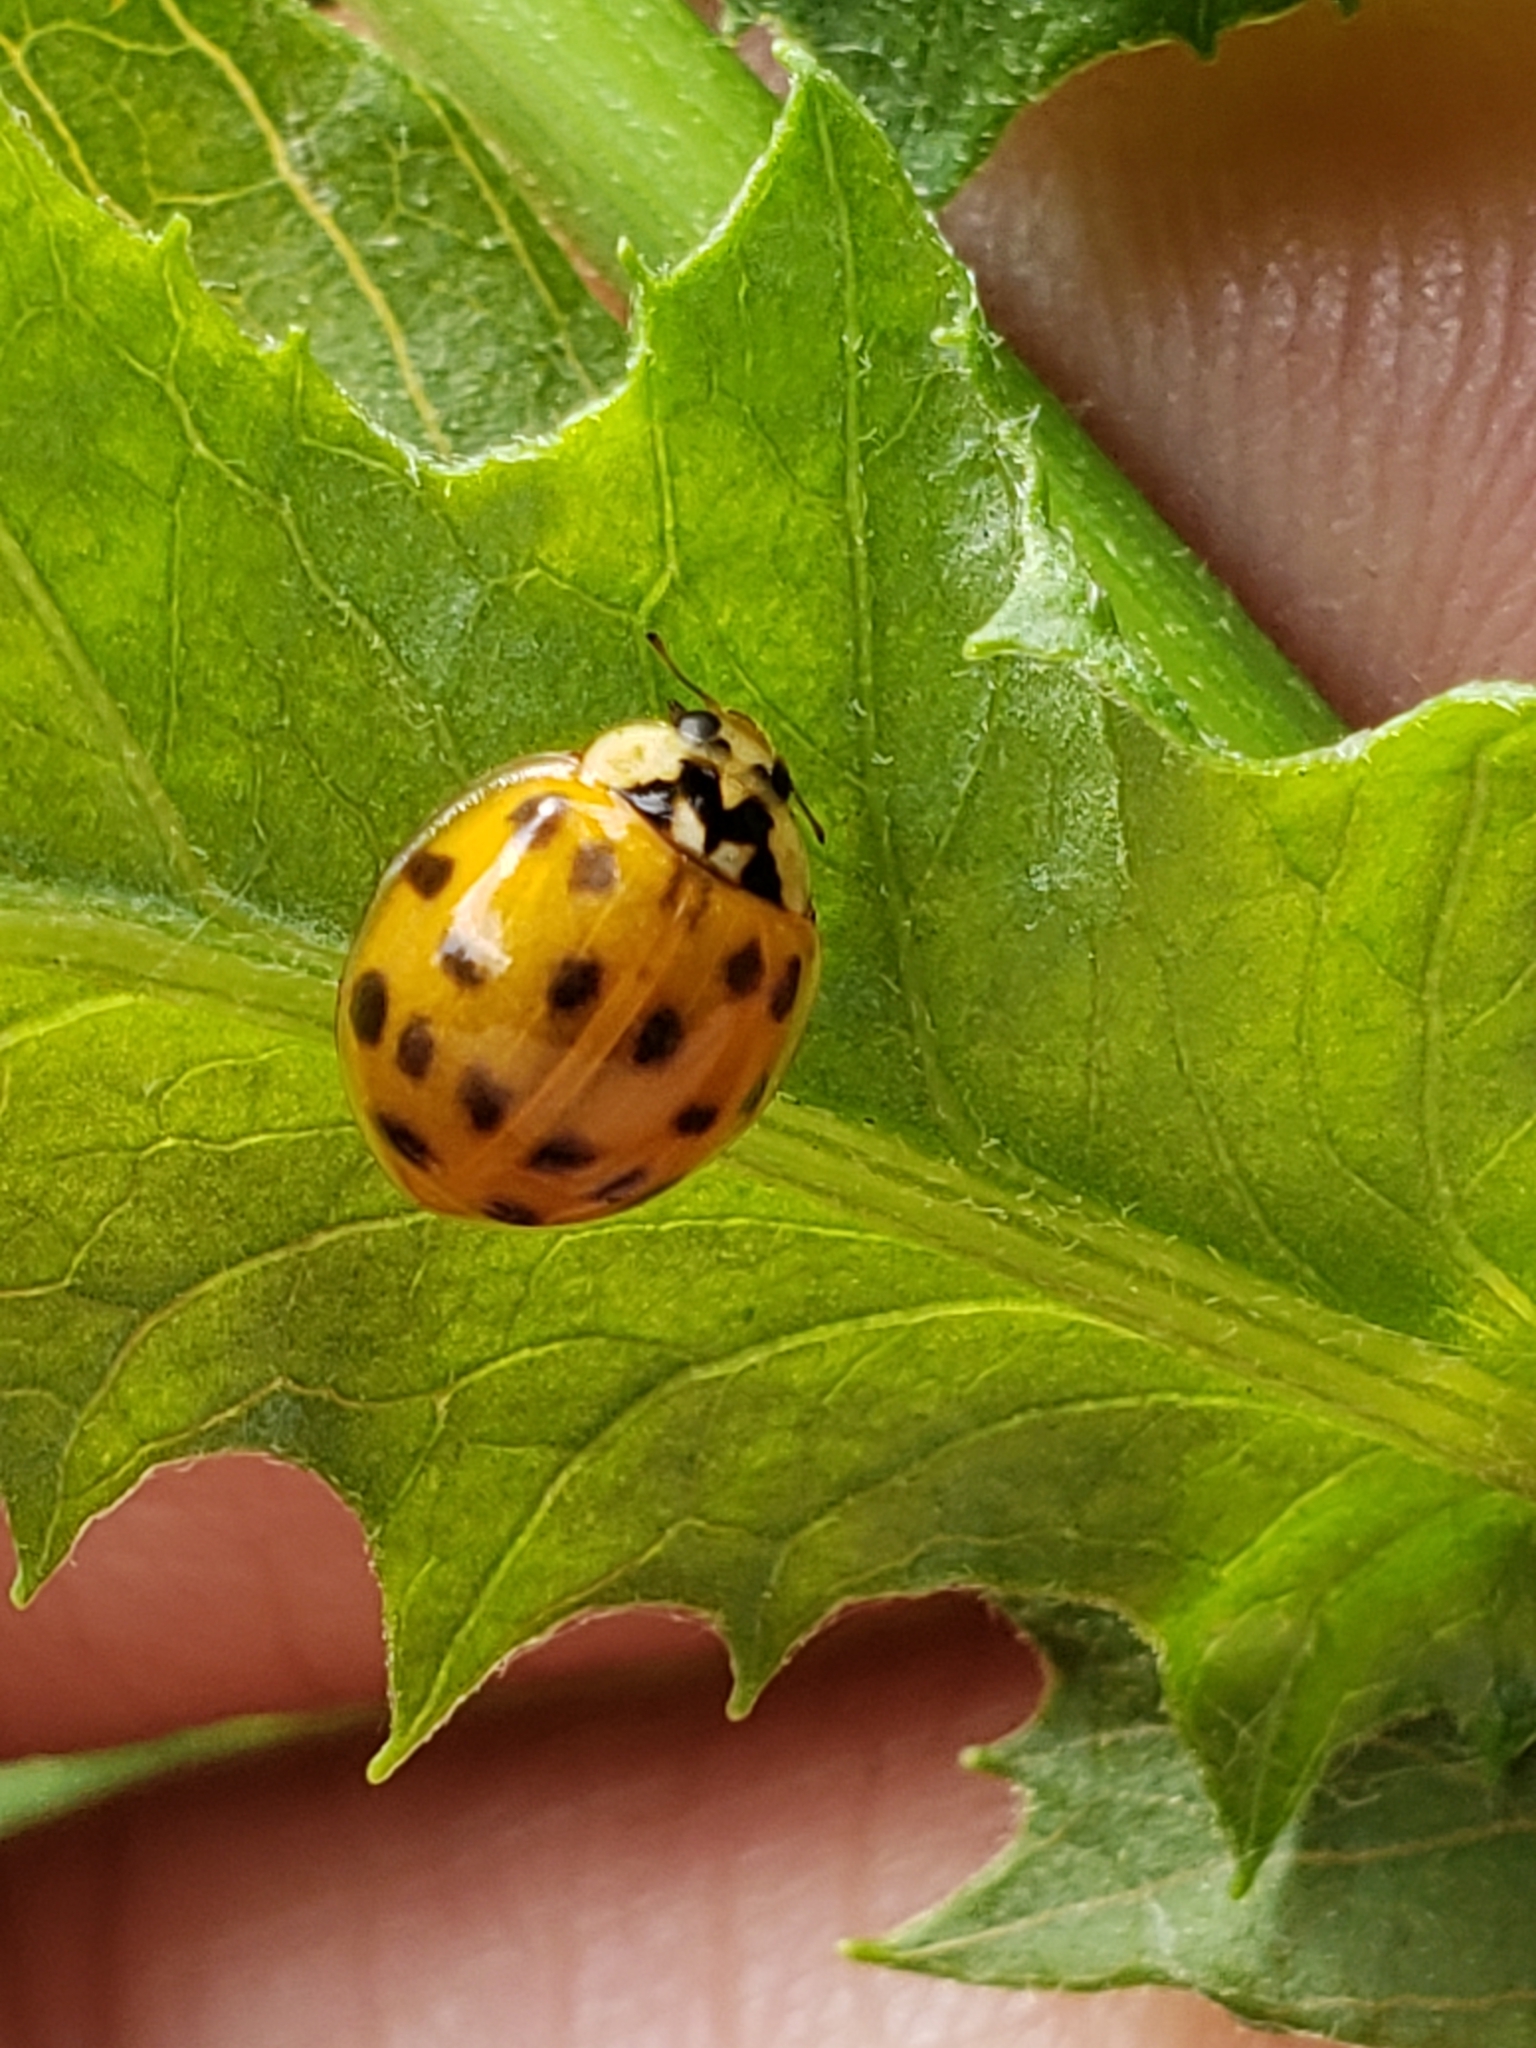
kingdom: Animalia
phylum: Arthropoda
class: Insecta
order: Coleoptera
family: Coccinellidae
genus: Harmonia
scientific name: Harmonia axyridis
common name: Harlequin ladybird
